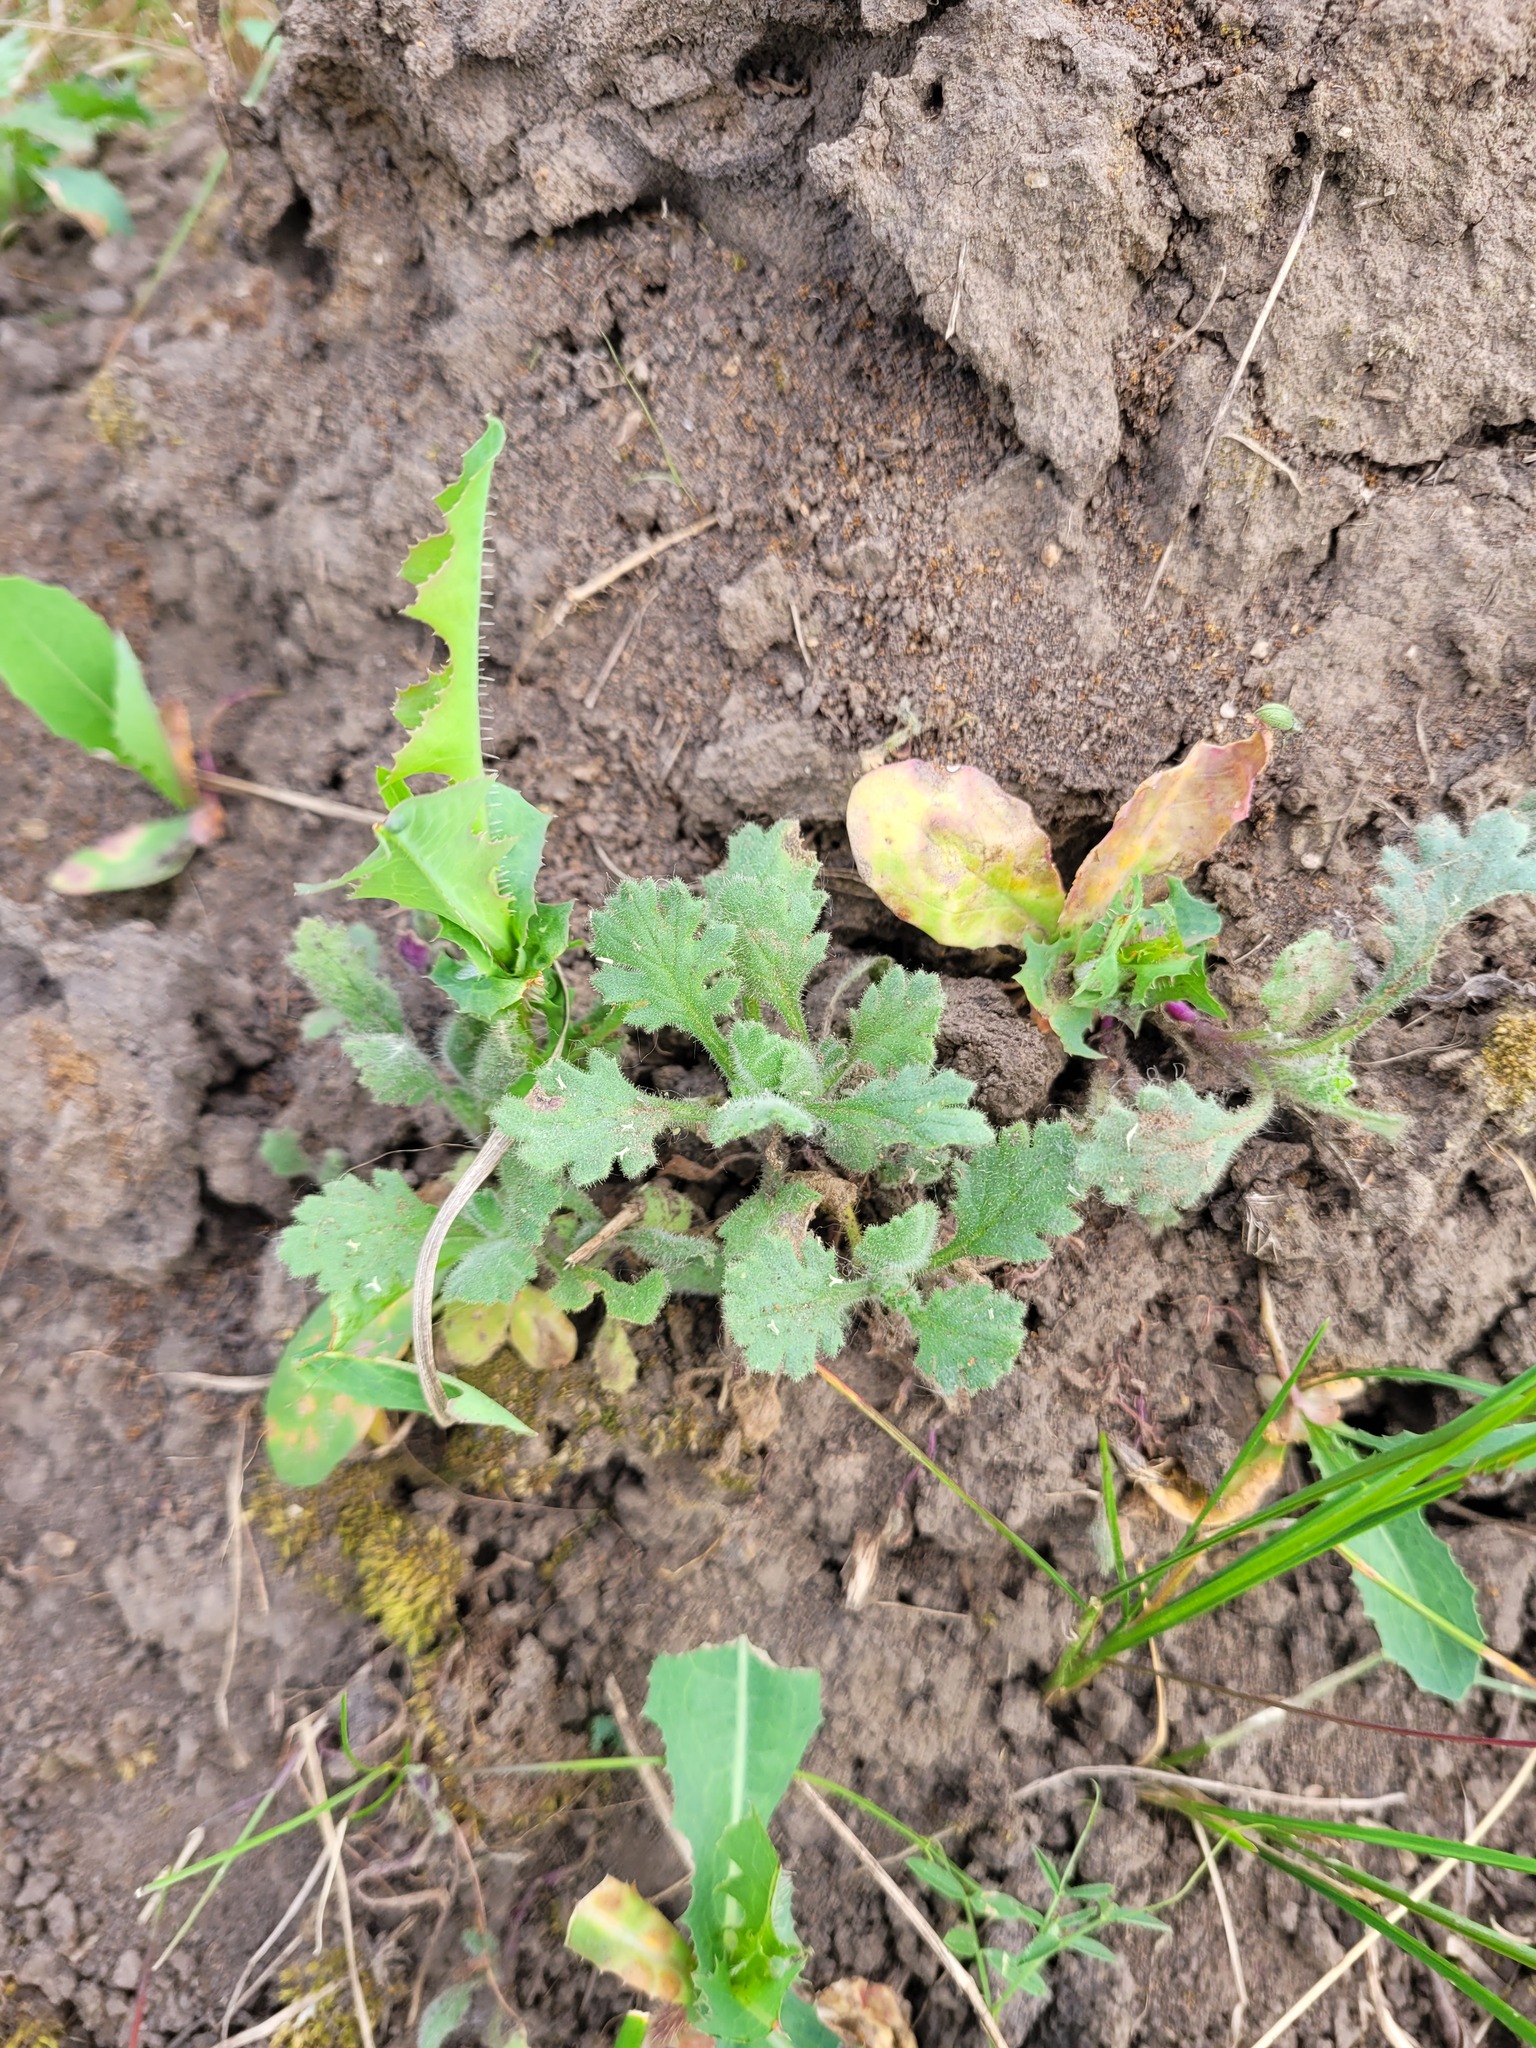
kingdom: Plantae
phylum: Tracheophyta
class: Magnoliopsida
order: Asterales
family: Asteraceae
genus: Senecio
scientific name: Senecio viscosus
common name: Sticky groundsel
